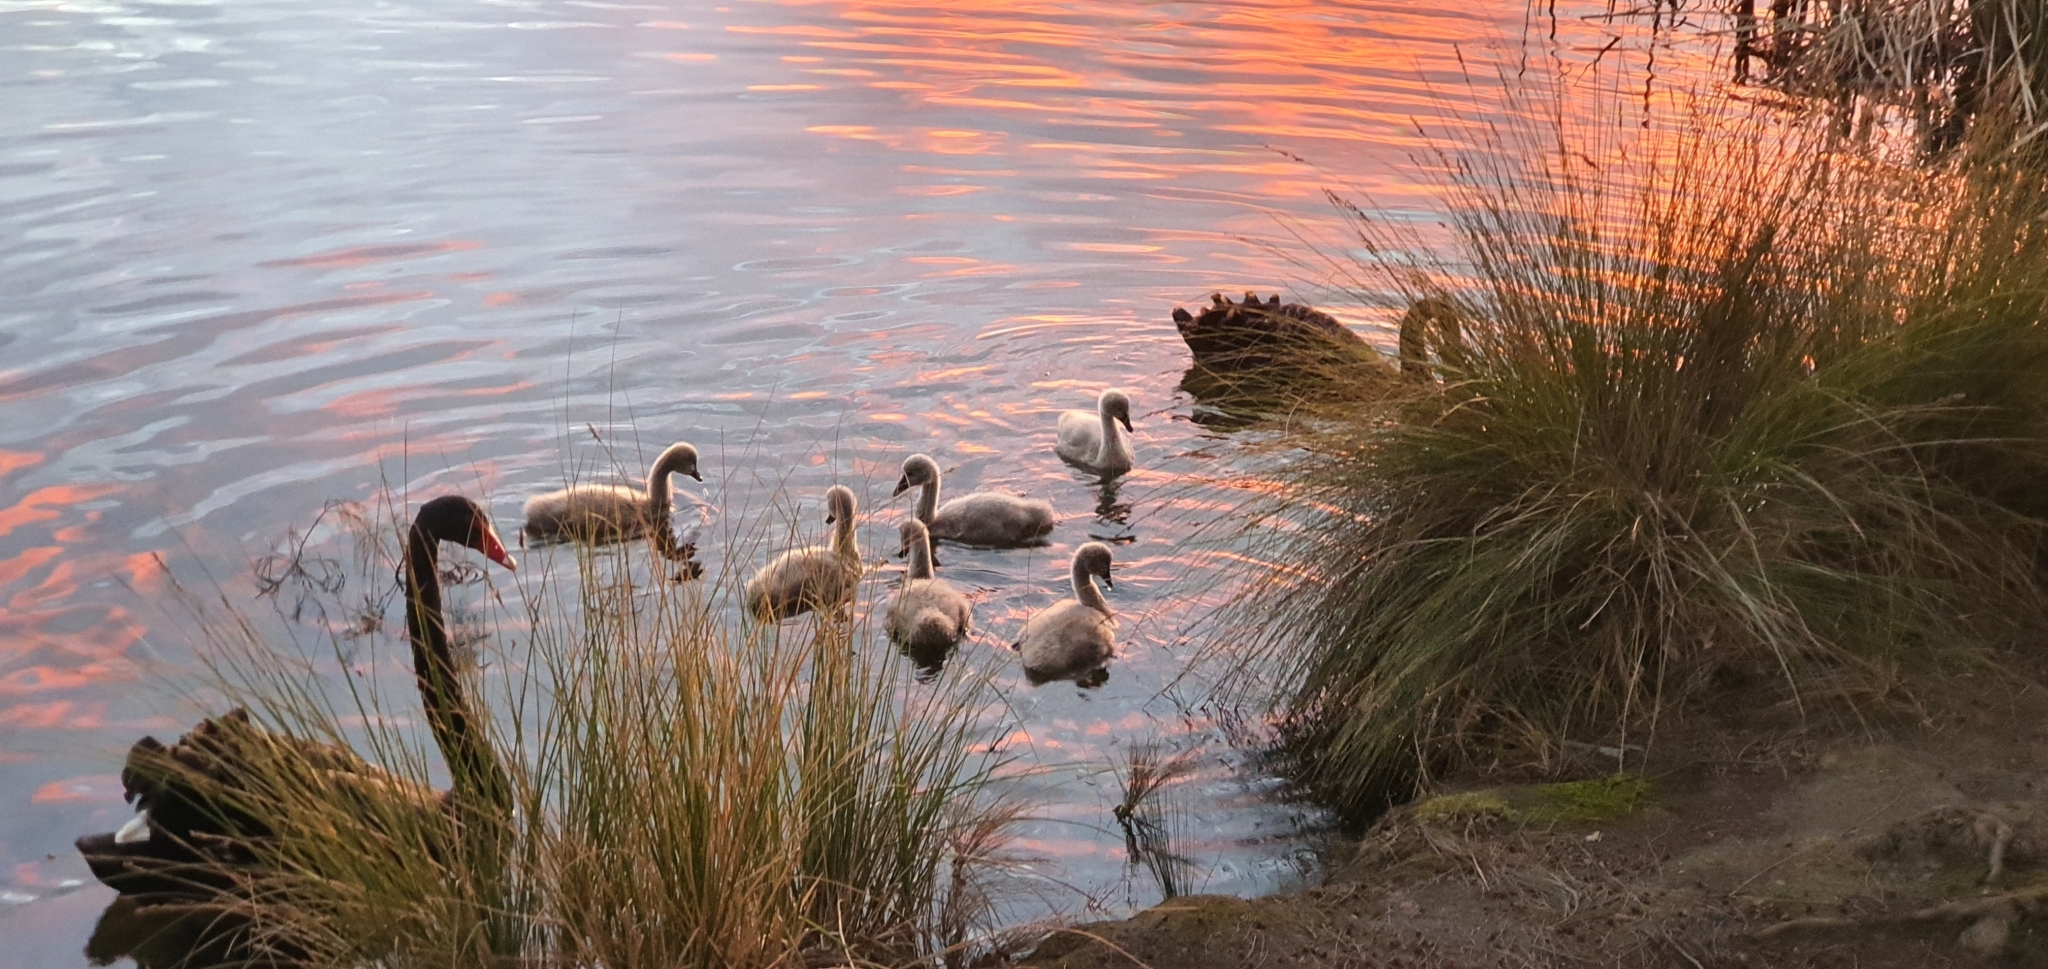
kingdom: Animalia
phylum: Chordata
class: Aves
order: Anseriformes
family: Anatidae
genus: Cygnus
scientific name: Cygnus atratus
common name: Black swan
